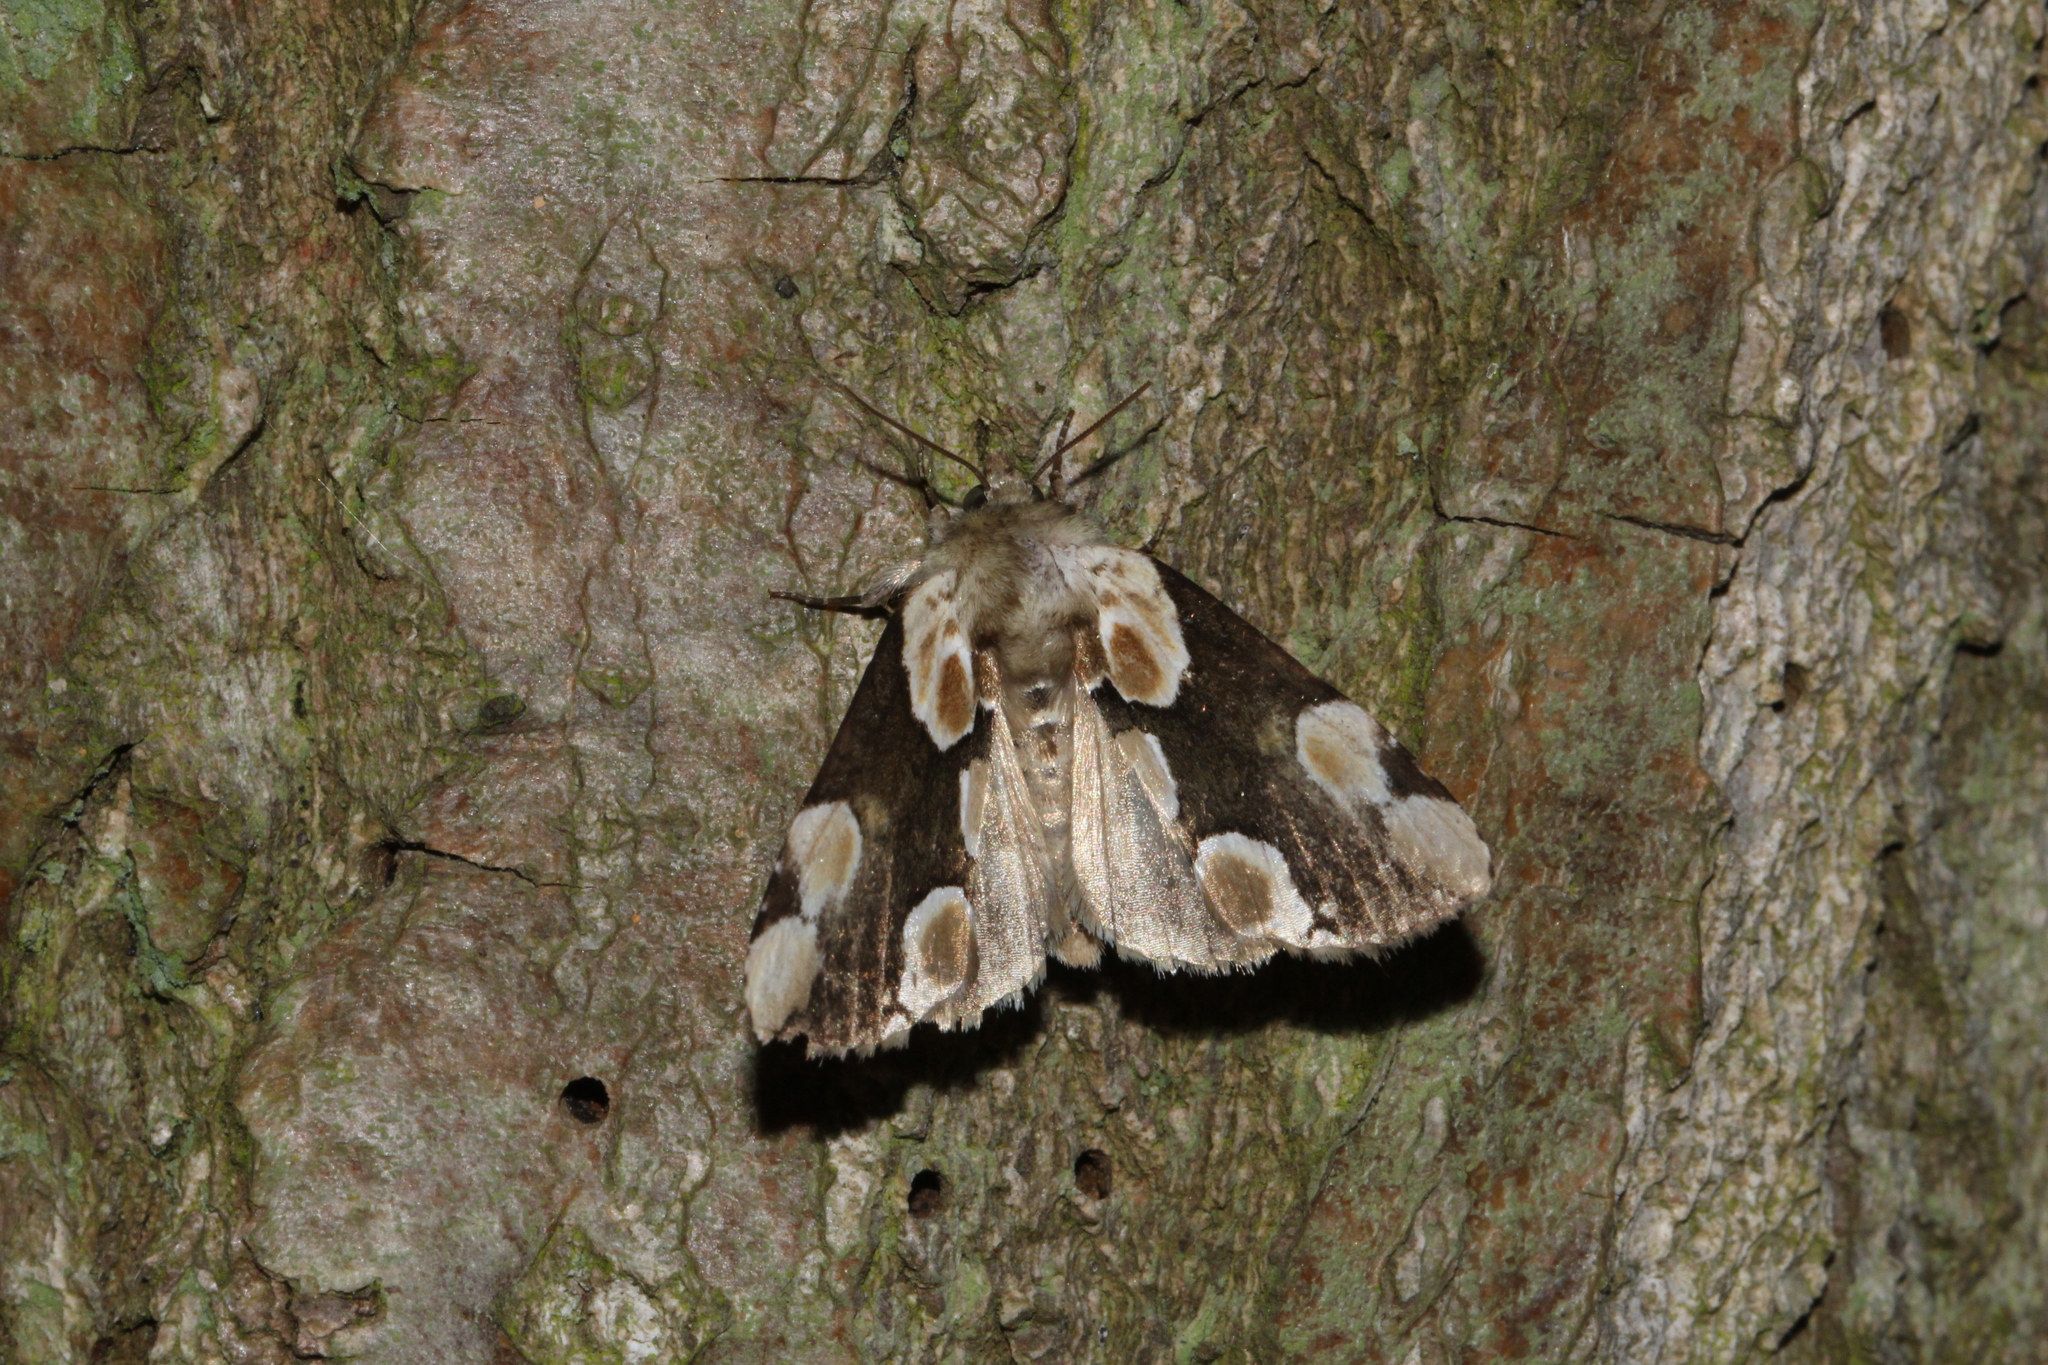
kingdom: Animalia
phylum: Arthropoda
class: Insecta
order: Lepidoptera
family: Drepanidae
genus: Thyatira
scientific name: Thyatira batis
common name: Peach blossom
